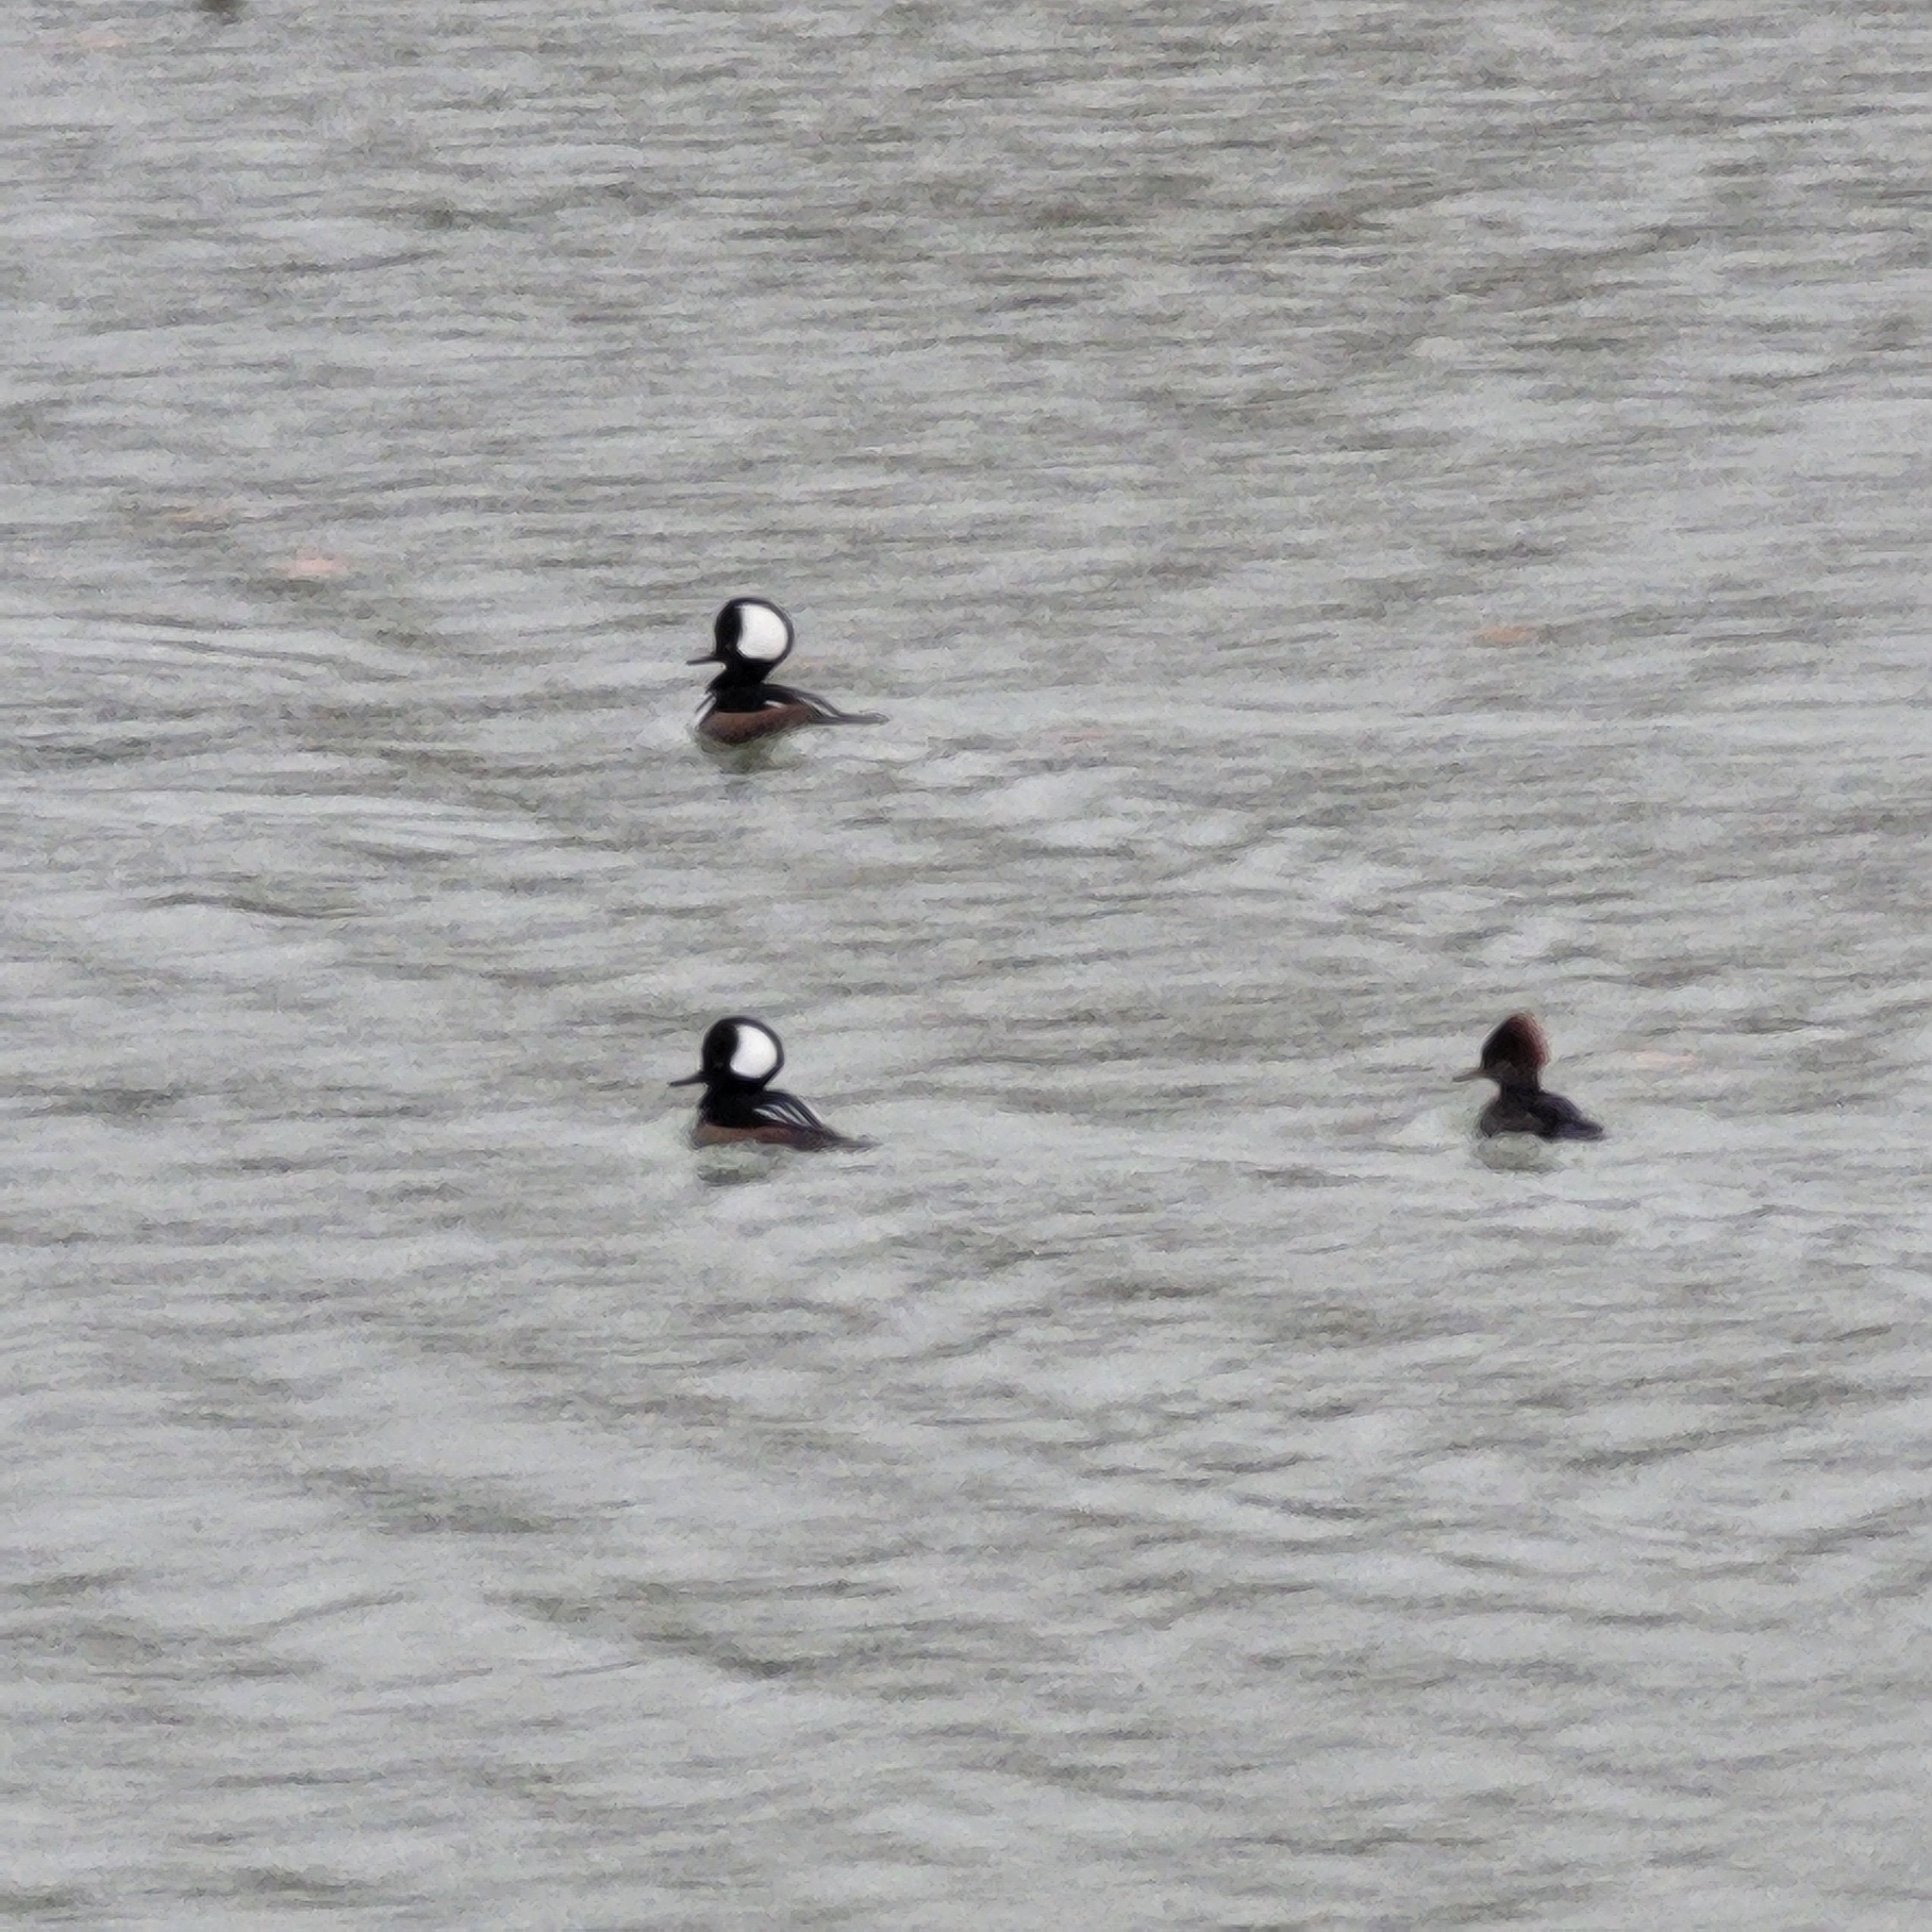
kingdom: Animalia
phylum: Chordata
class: Aves
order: Anseriformes
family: Anatidae
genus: Lophodytes
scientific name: Lophodytes cucullatus
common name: Hooded merganser
